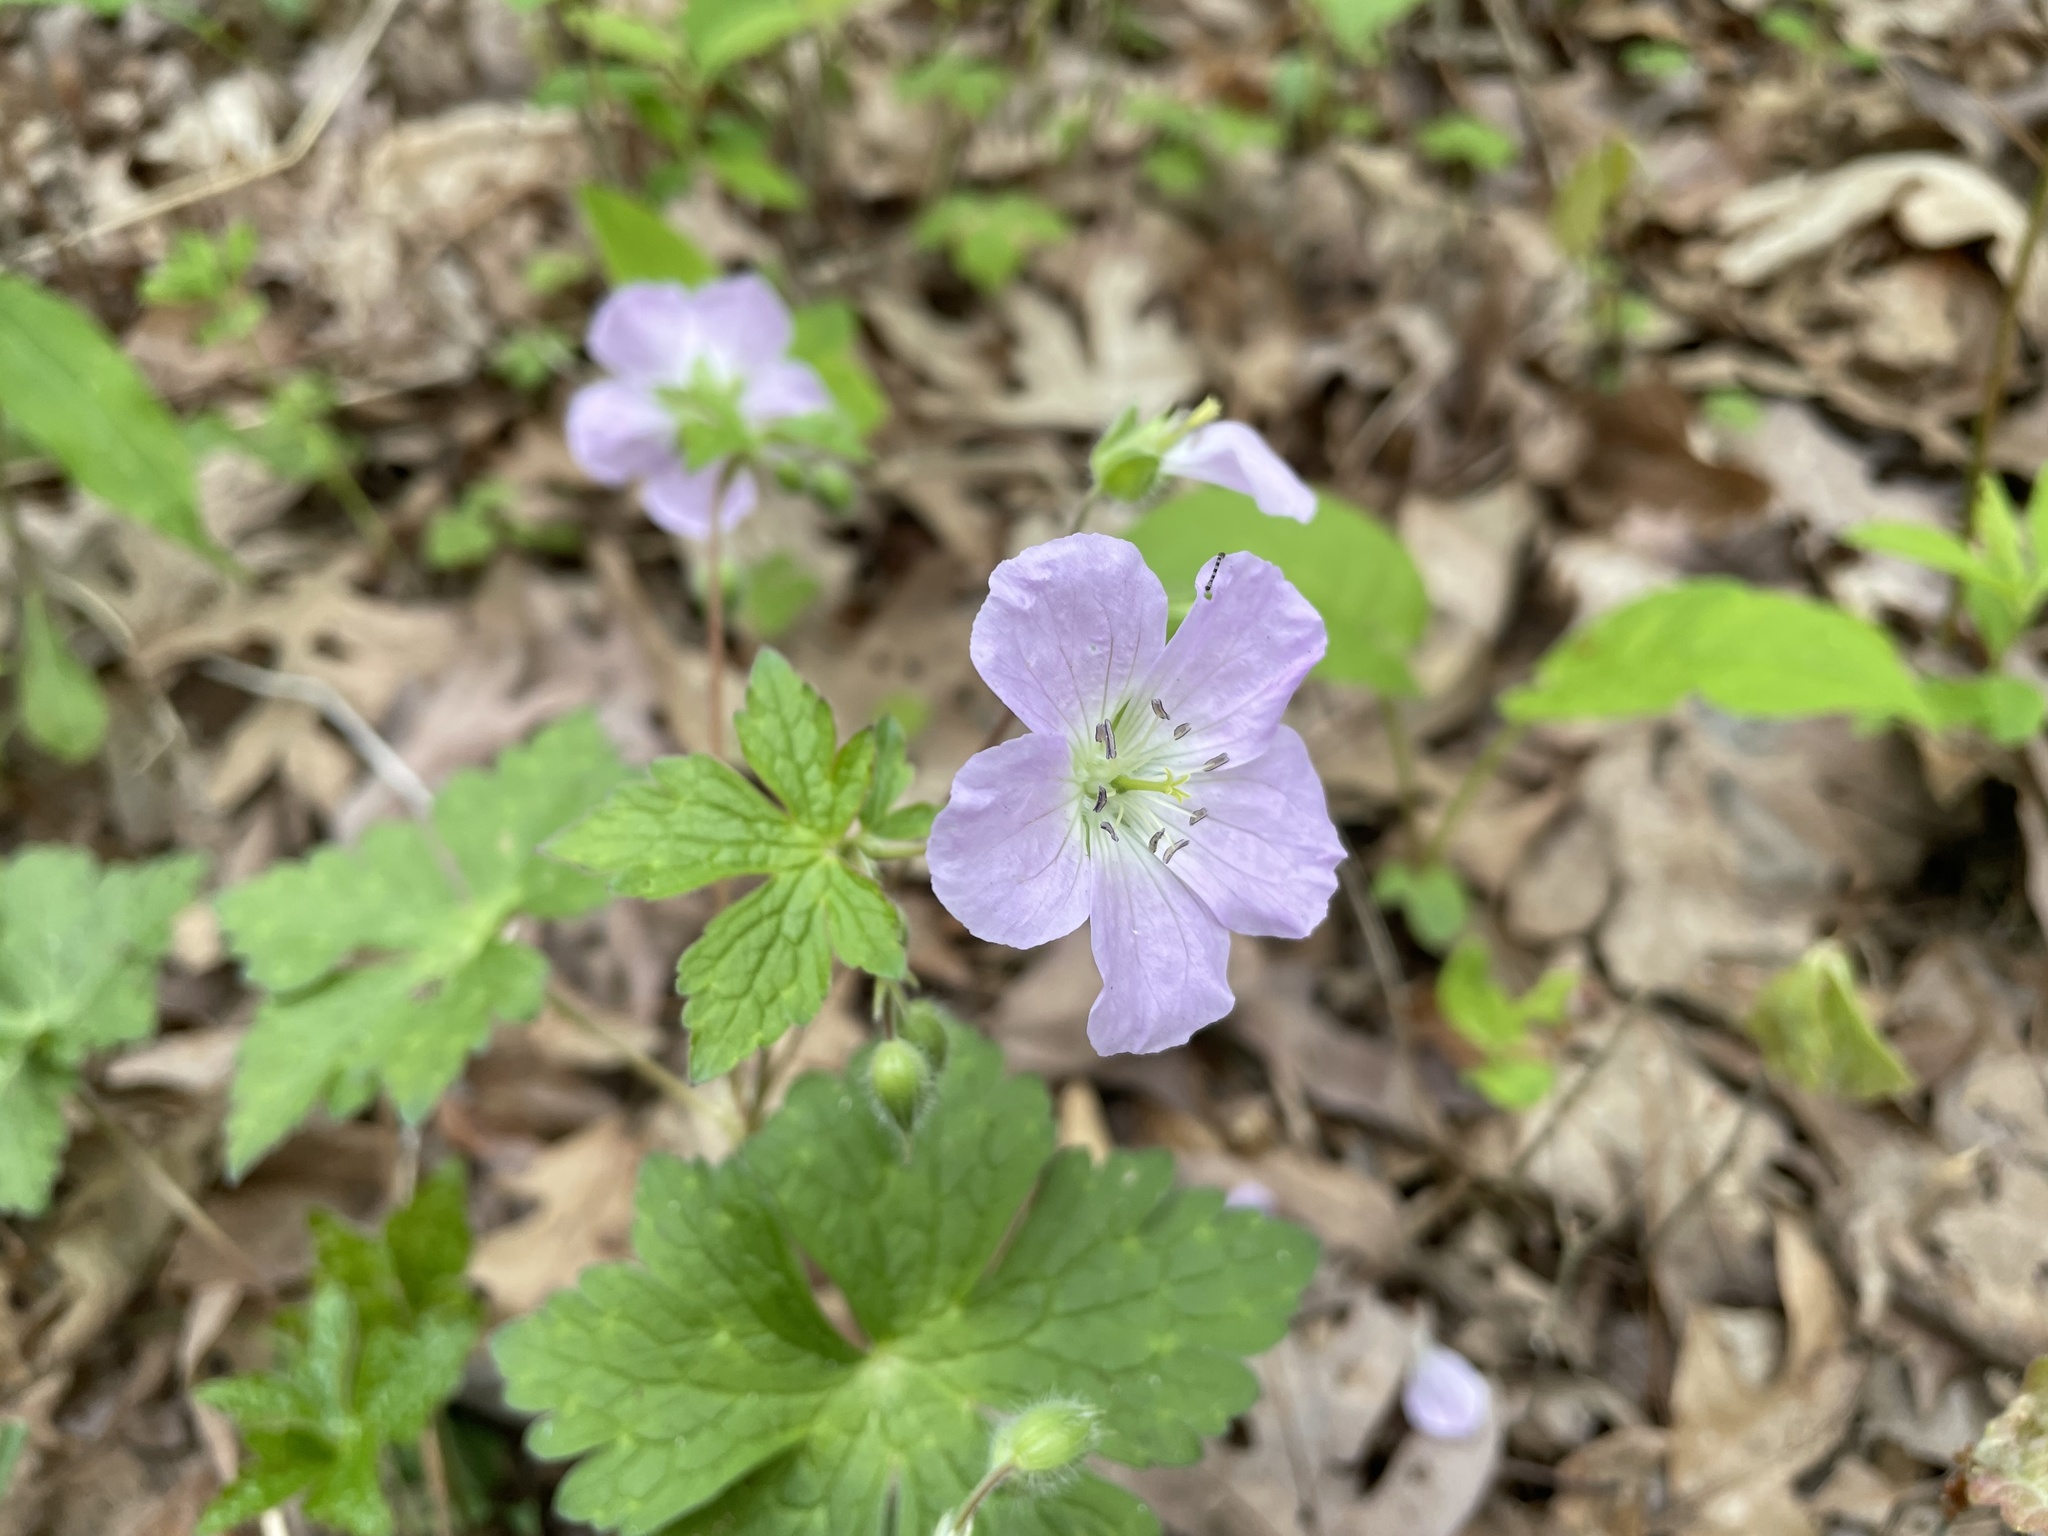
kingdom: Plantae
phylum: Tracheophyta
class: Magnoliopsida
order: Geraniales
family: Geraniaceae
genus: Geranium
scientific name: Geranium maculatum
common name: Spotted geranium
